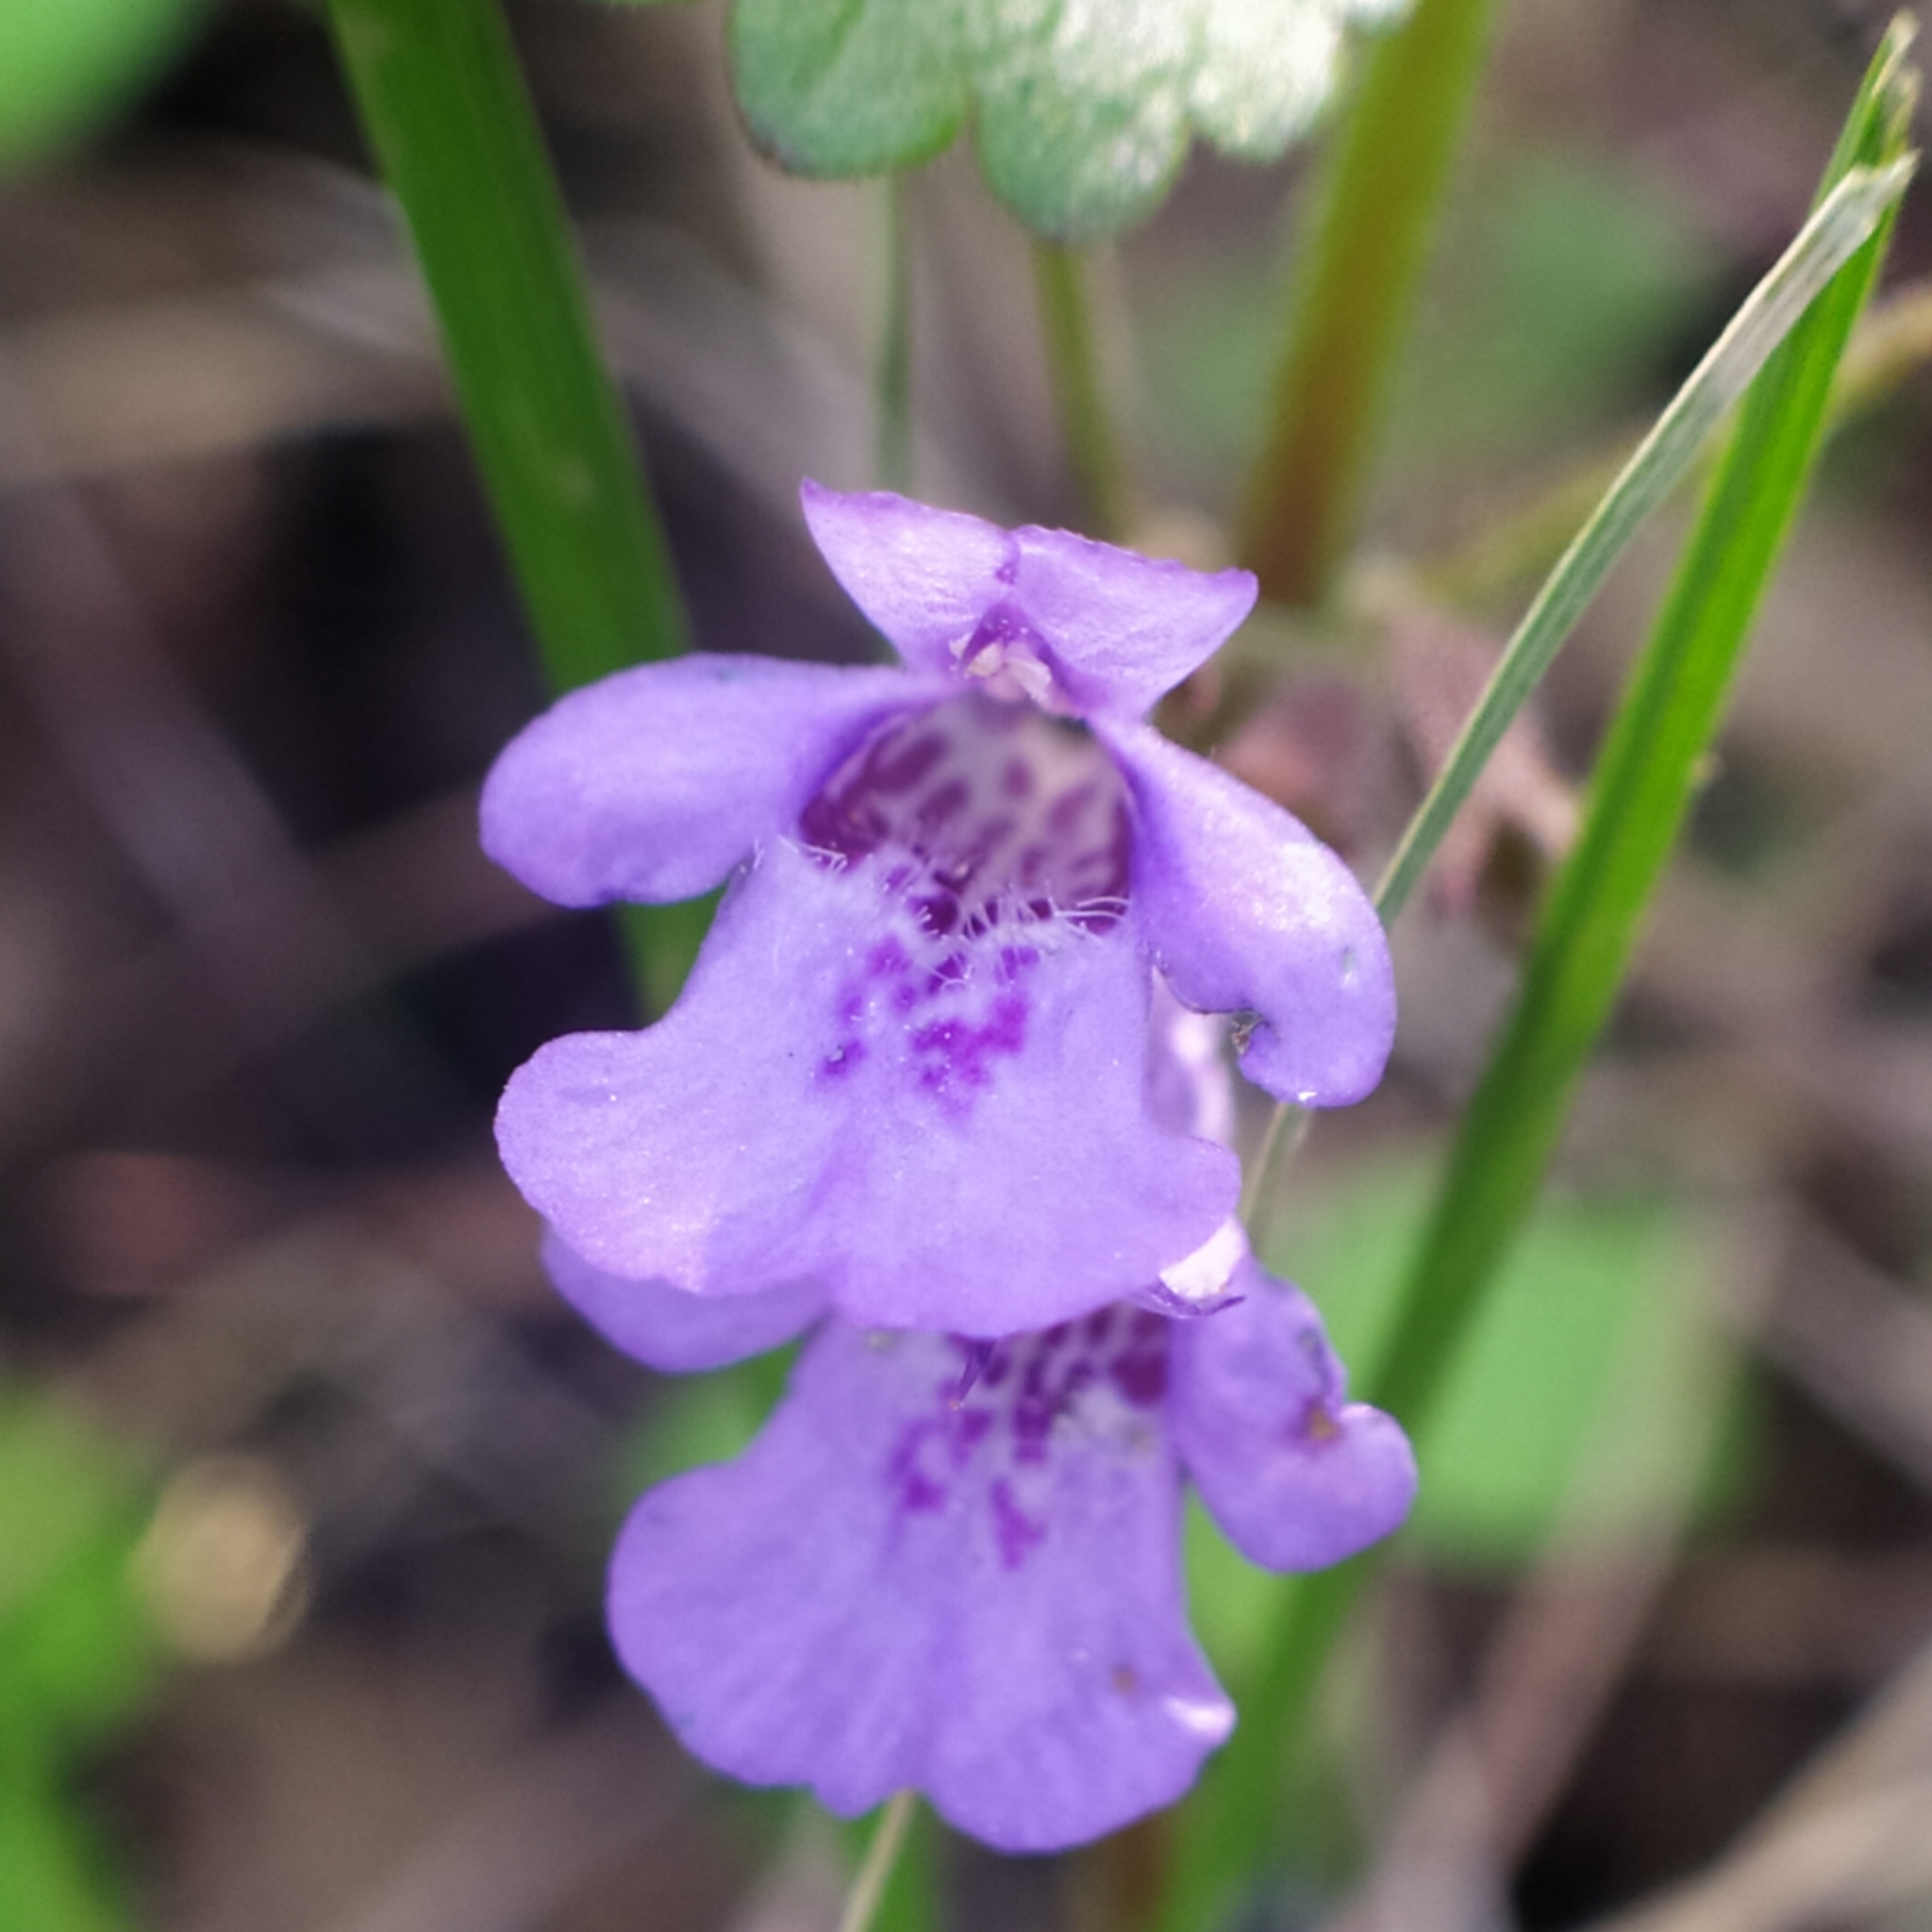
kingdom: Plantae
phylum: Tracheophyta
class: Magnoliopsida
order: Lamiales
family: Lamiaceae
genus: Glechoma
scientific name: Glechoma hederacea
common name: Ground ivy
